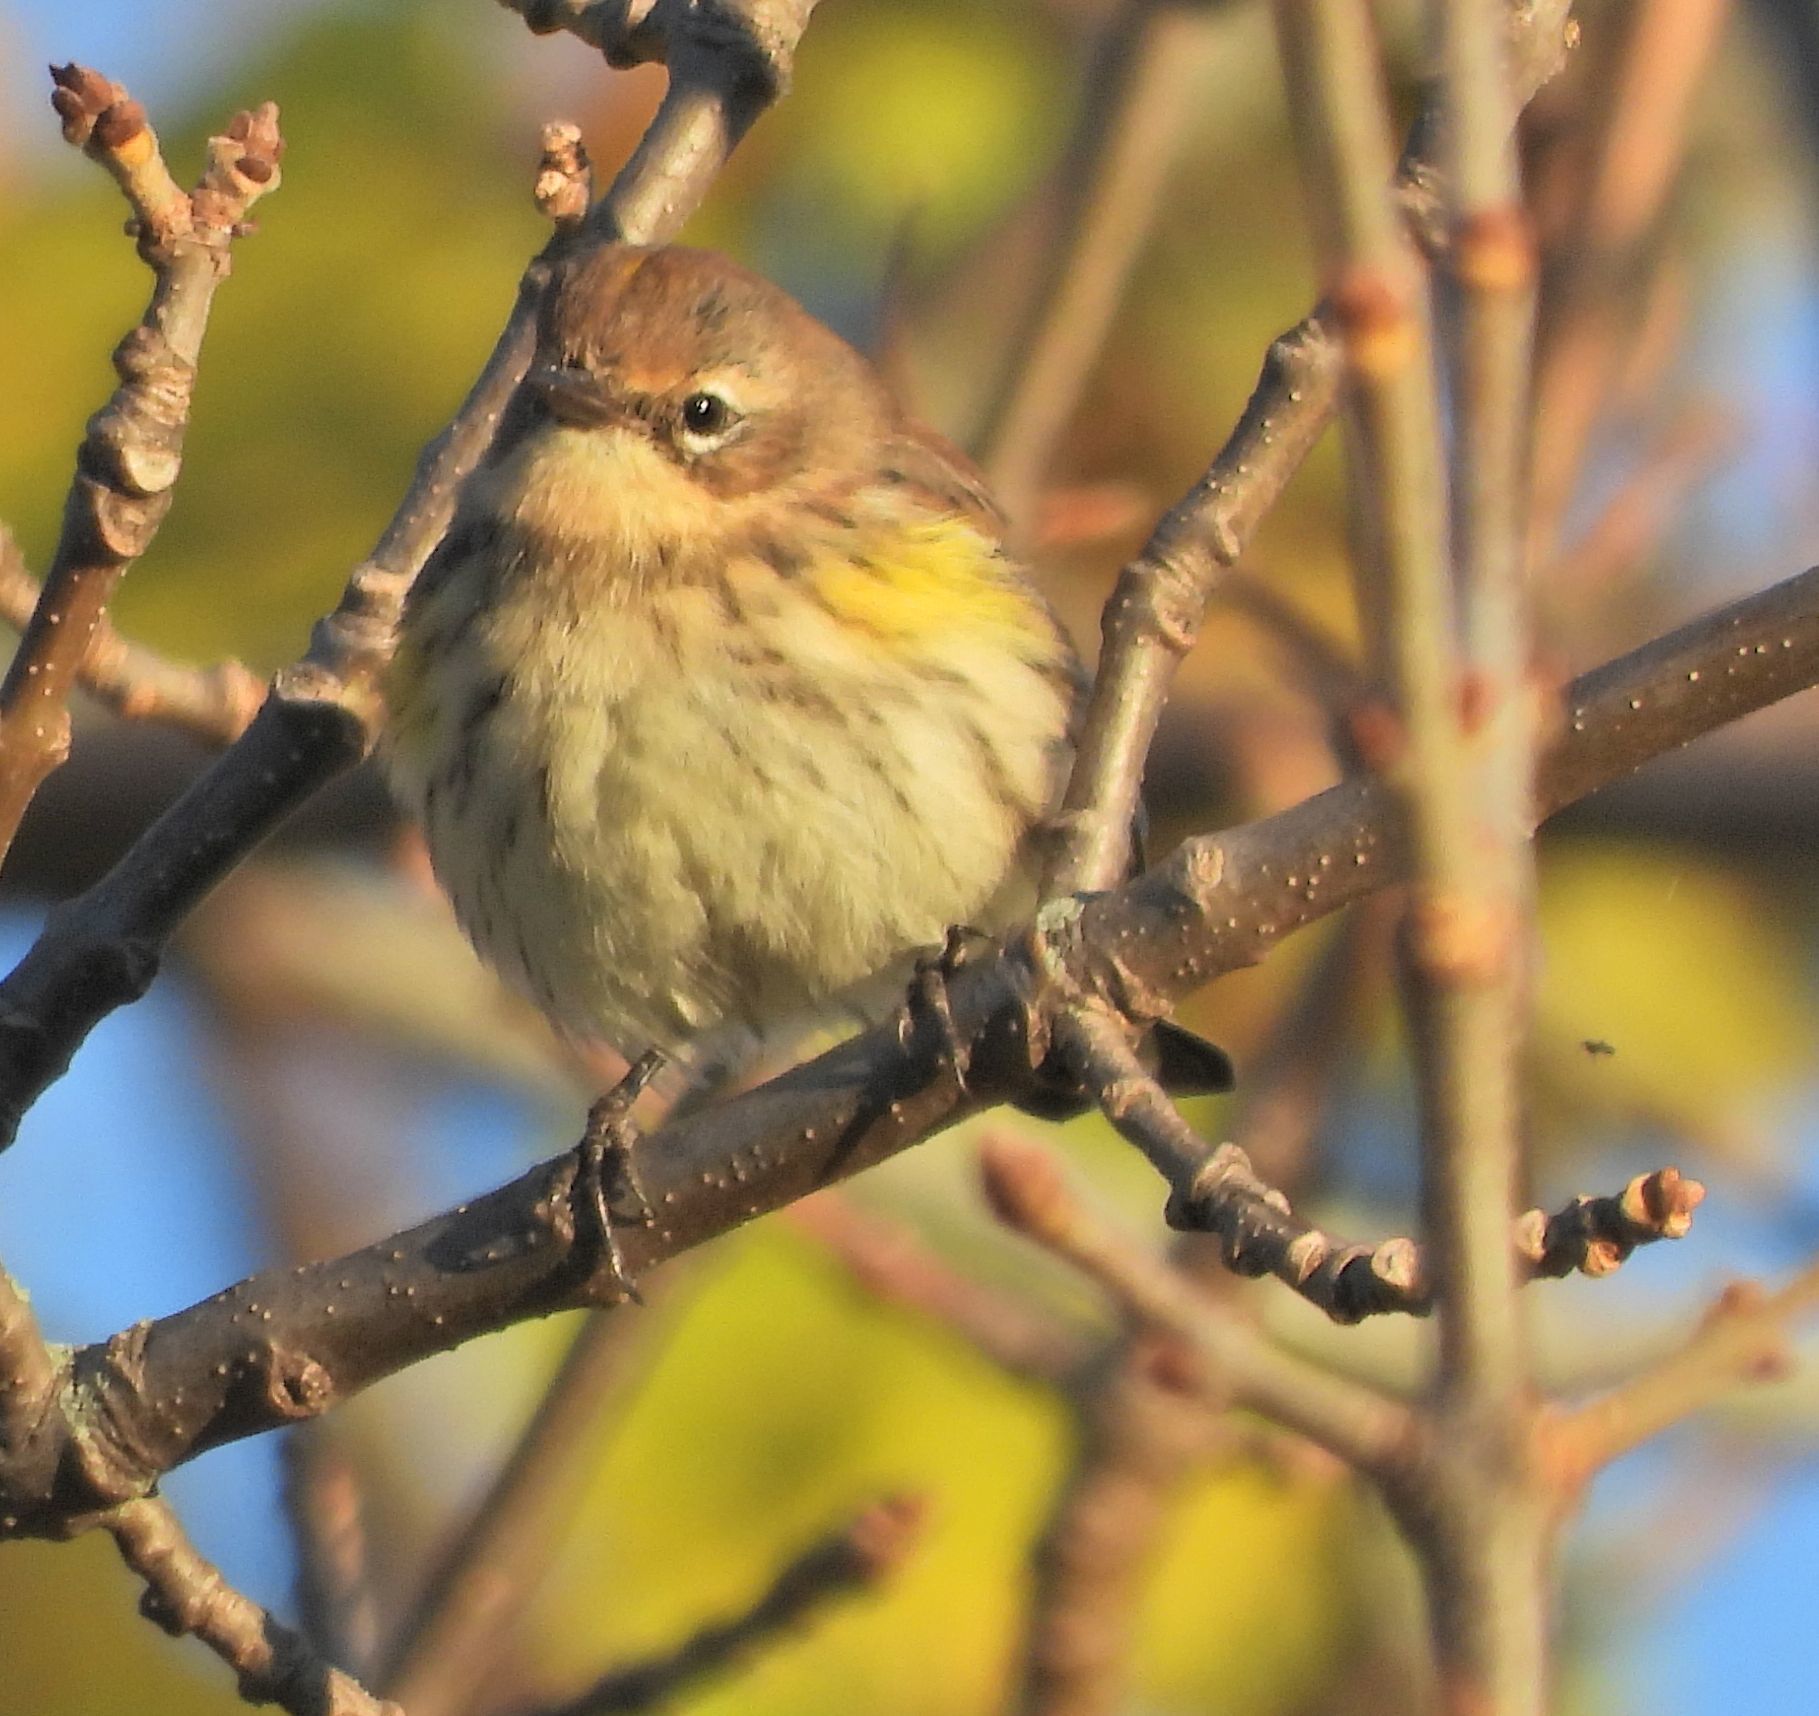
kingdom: Animalia
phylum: Chordata
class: Aves
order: Passeriformes
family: Parulidae
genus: Setophaga
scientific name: Setophaga coronata
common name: Myrtle warbler
